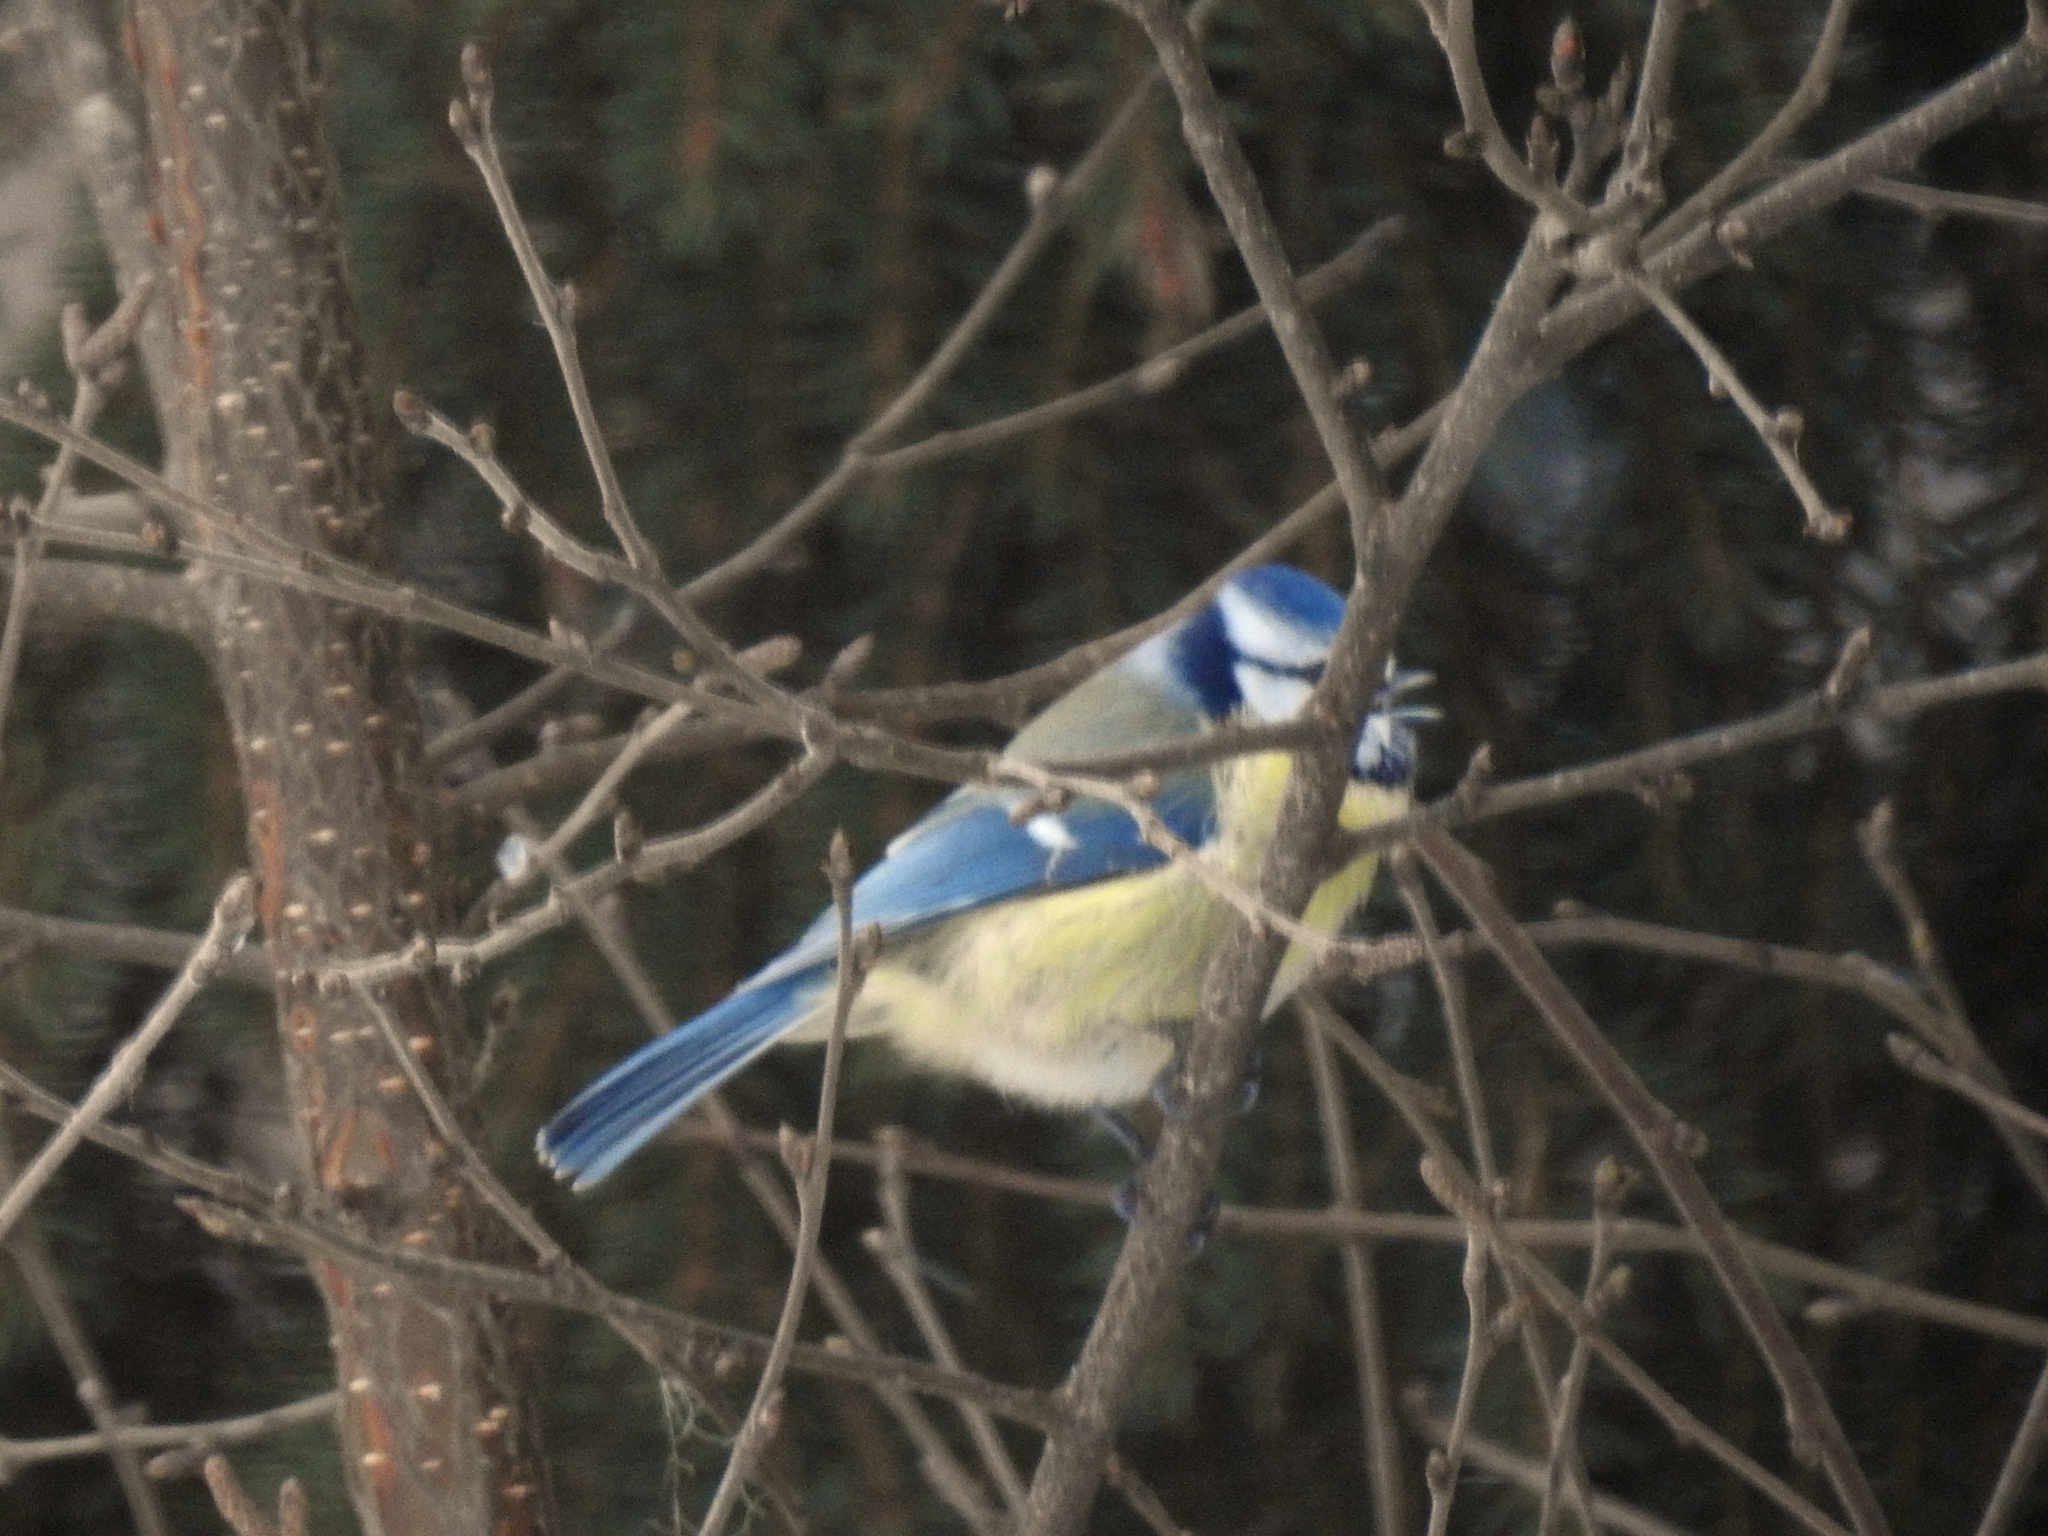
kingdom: Animalia
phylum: Chordata
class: Aves
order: Passeriformes
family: Paridae
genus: Cyanistes
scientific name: Cyanistes caeruleus
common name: Eurasian blue tit
